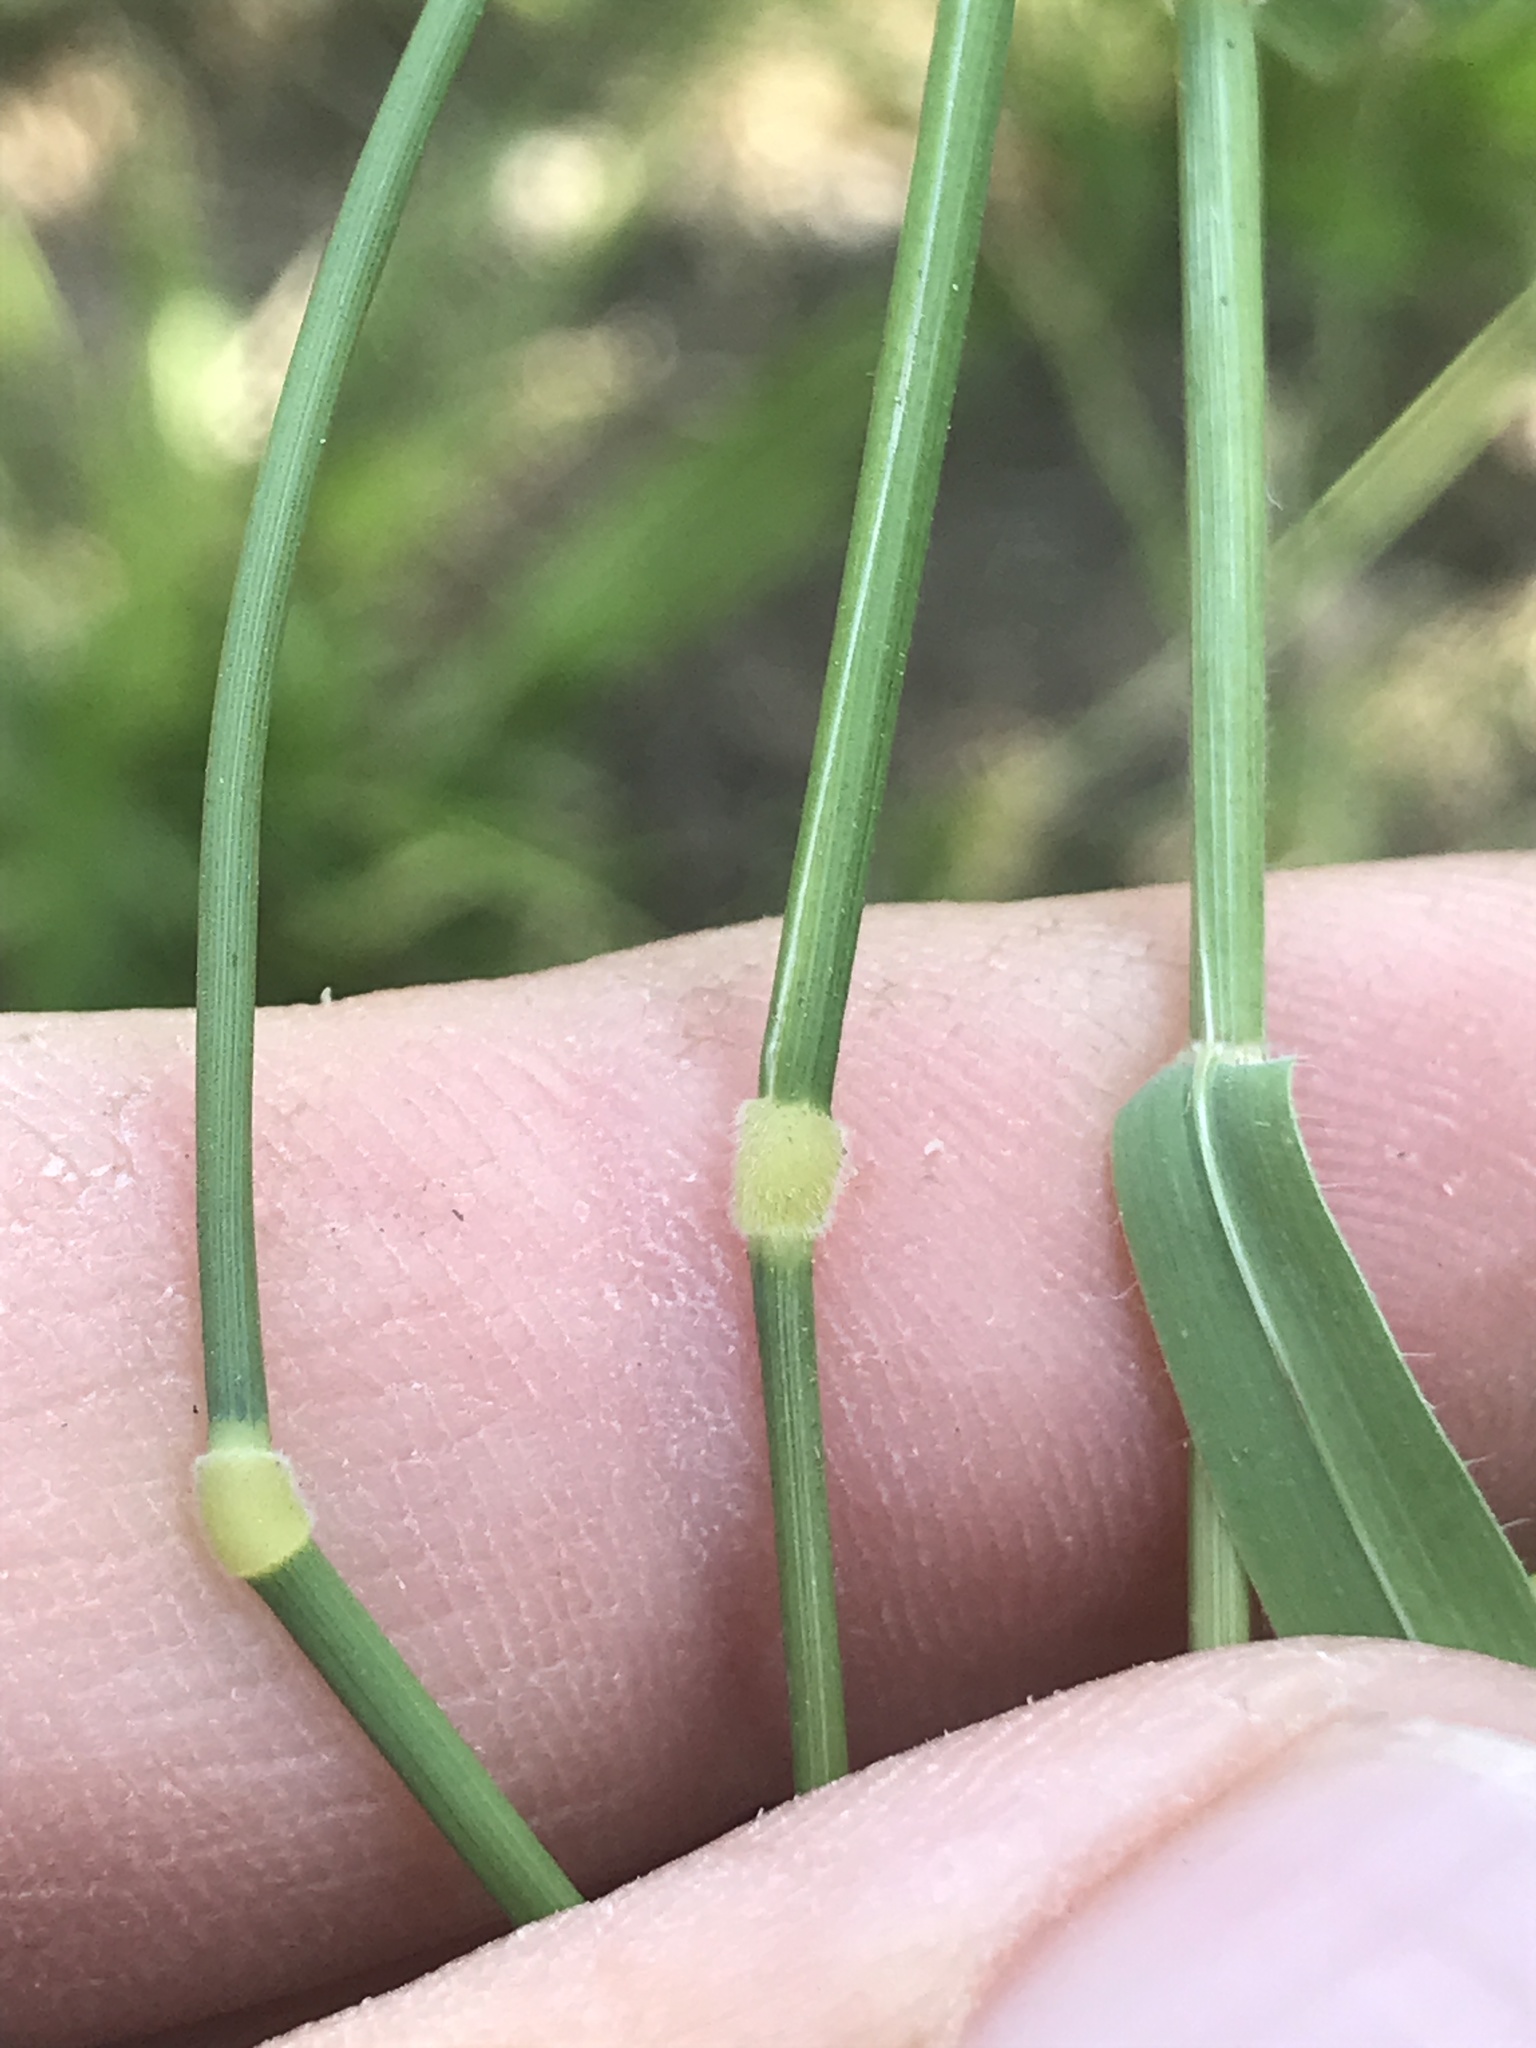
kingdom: Plantae
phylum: Tracheophyta
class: Liliopsida
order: Poales
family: Poaceae
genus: Brachypodium
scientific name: Brachypodium distachyon
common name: Stiff brome
